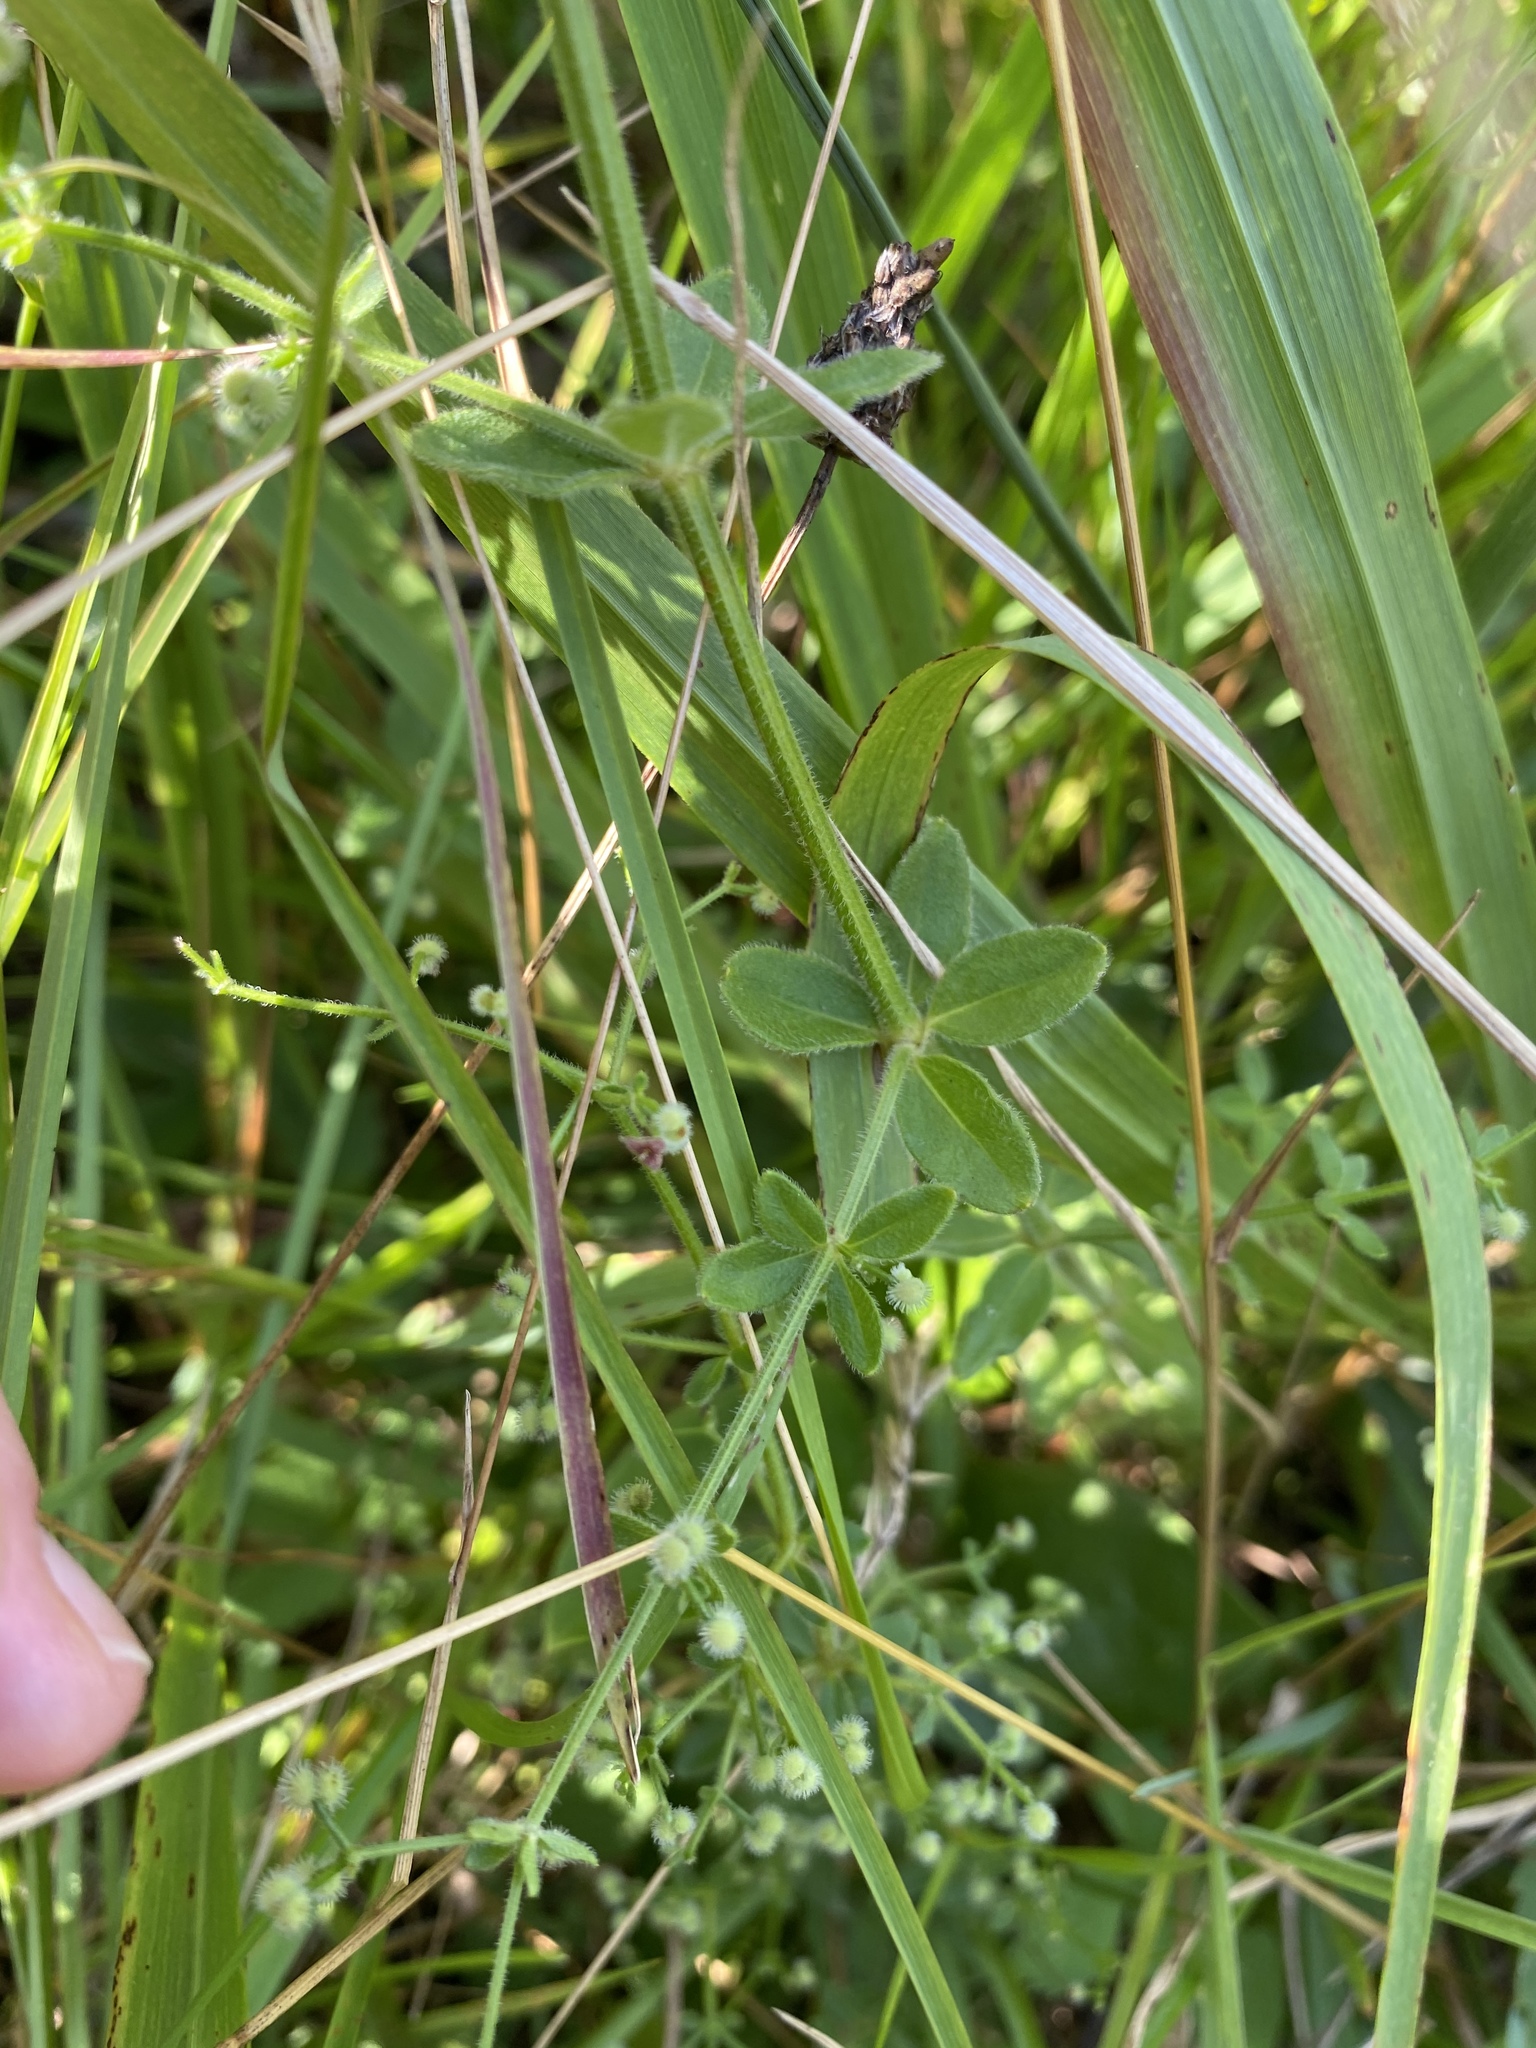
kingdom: Plantae
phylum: Tracheophyta
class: Magnoliopsida
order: Gentianales
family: Rubiaceae
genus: Galium
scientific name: Galium pilosum
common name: Hairy bedstraw
